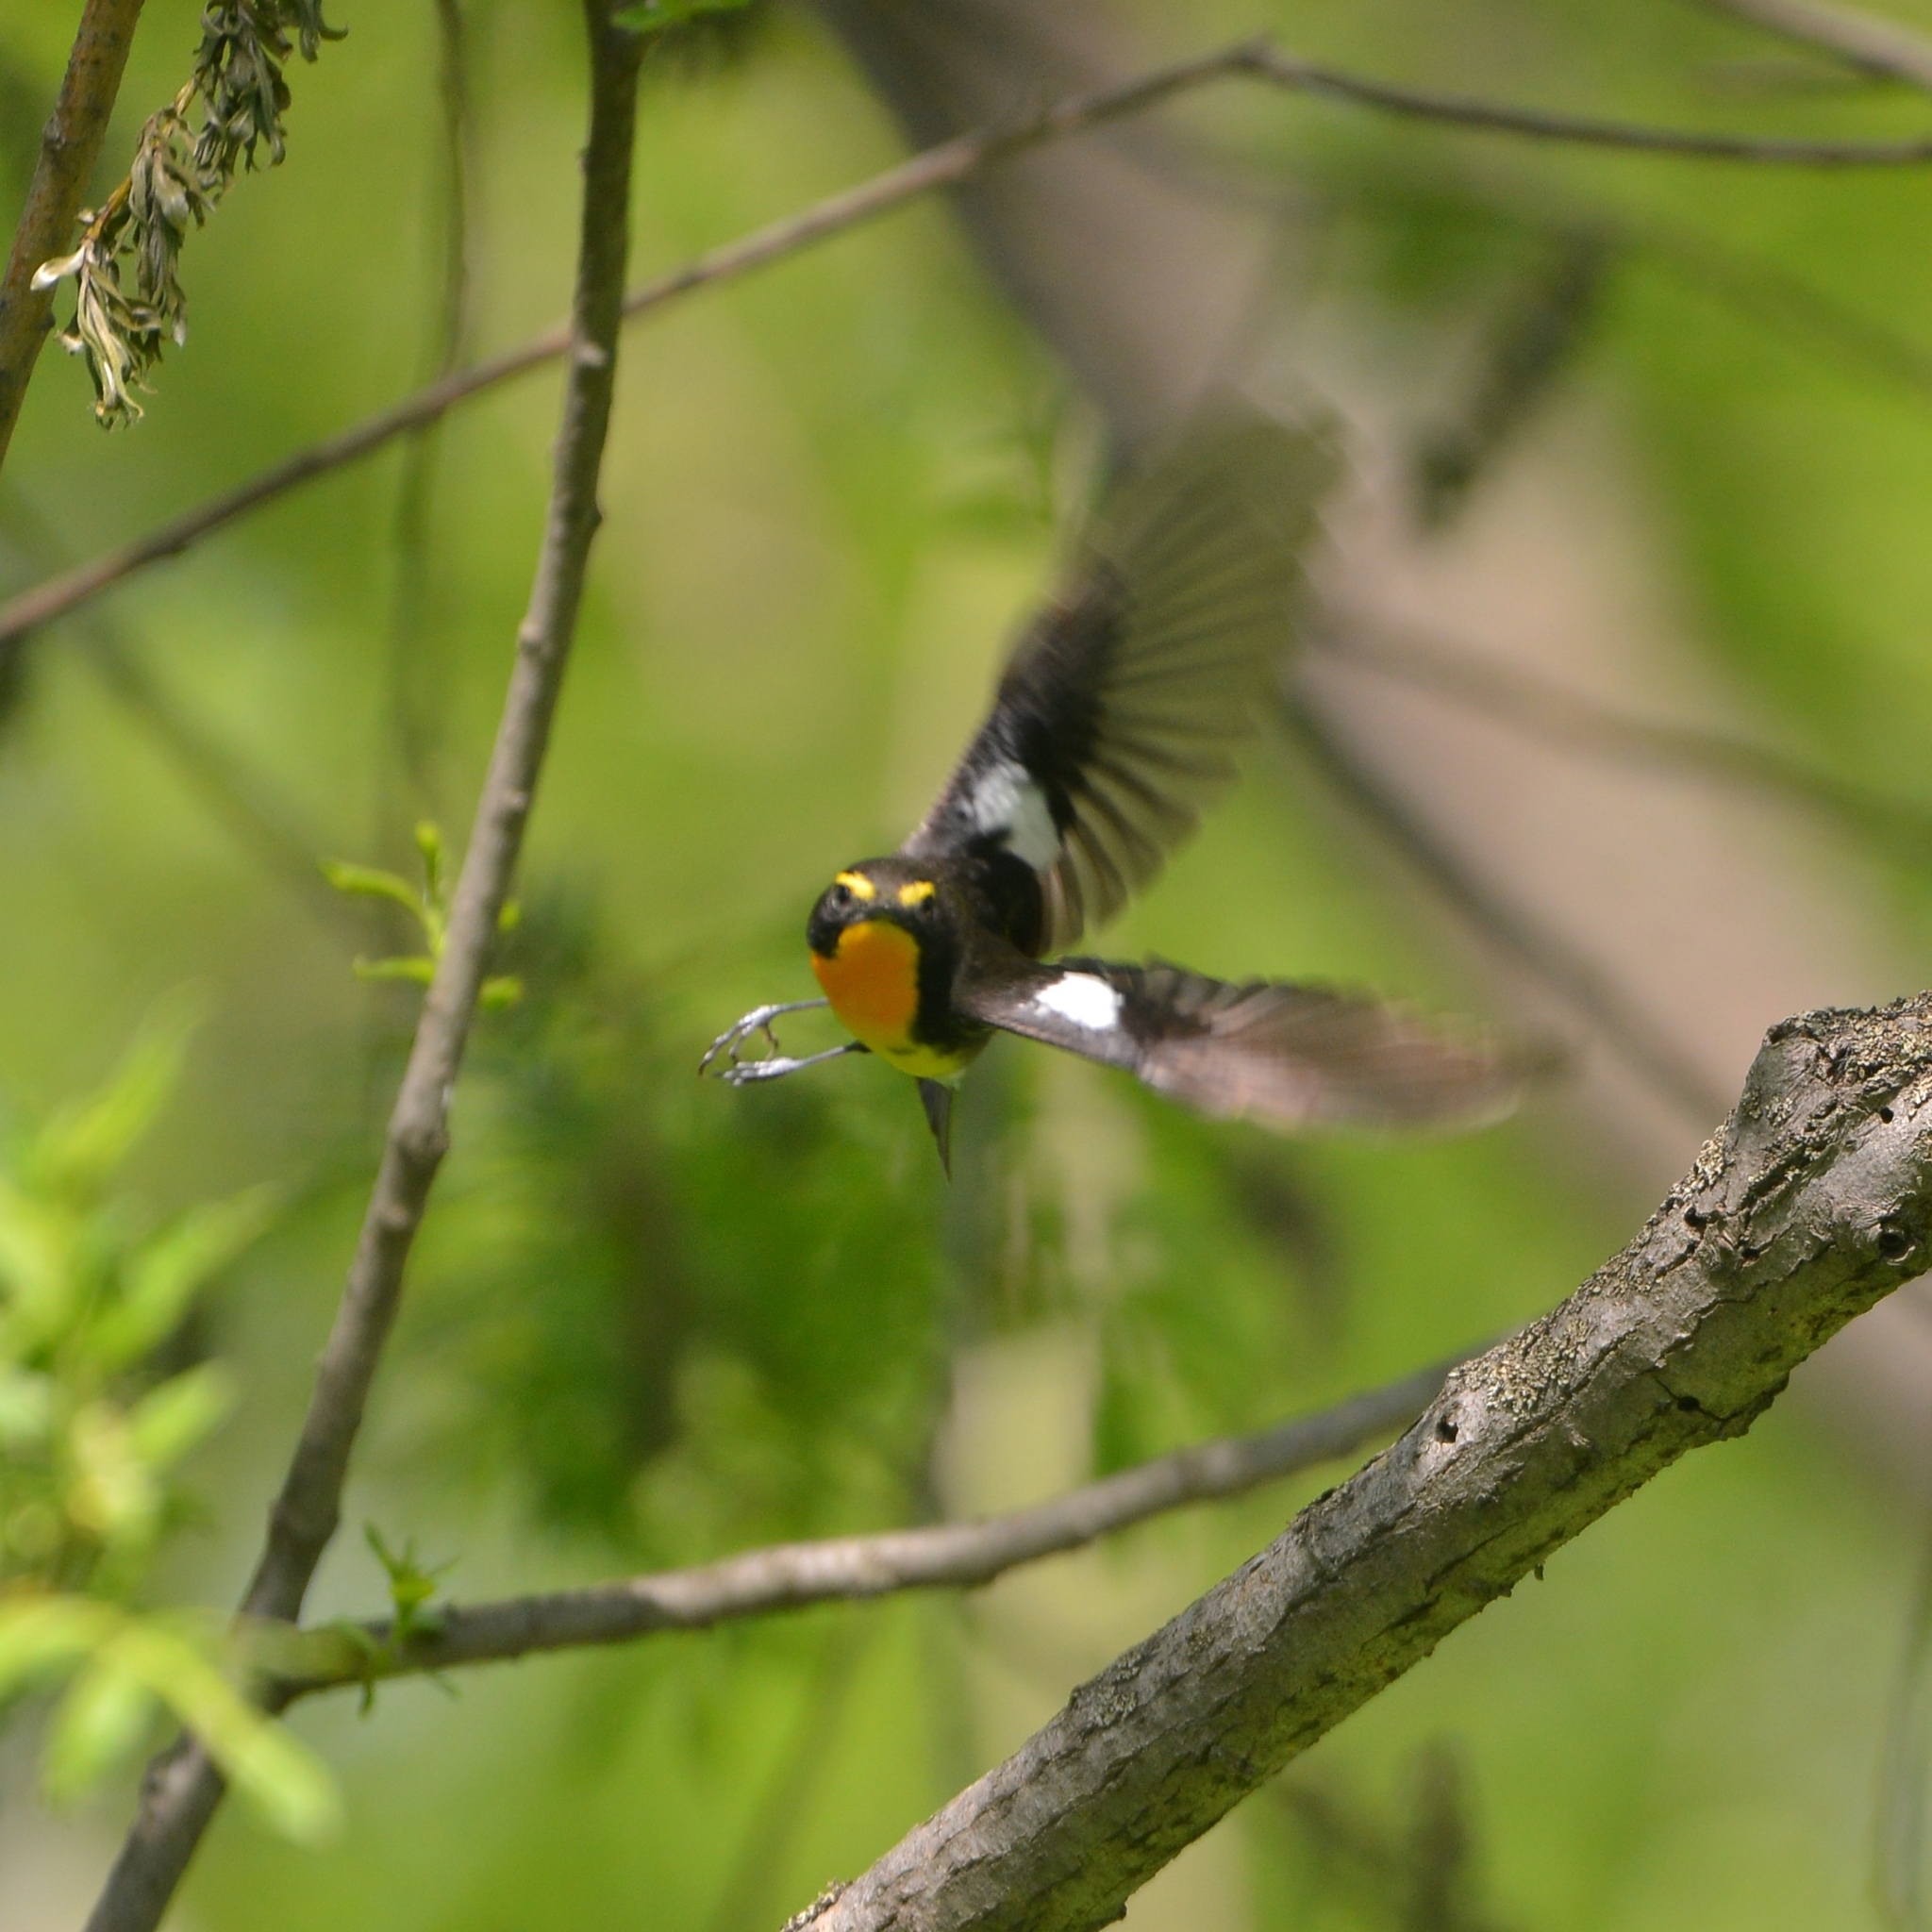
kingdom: Animalia
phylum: Chordata
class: Aves
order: Passeriformes
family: Muscicapidae
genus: Ficedula
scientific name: Ficedula narcissina
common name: Narcissus flycatcher
